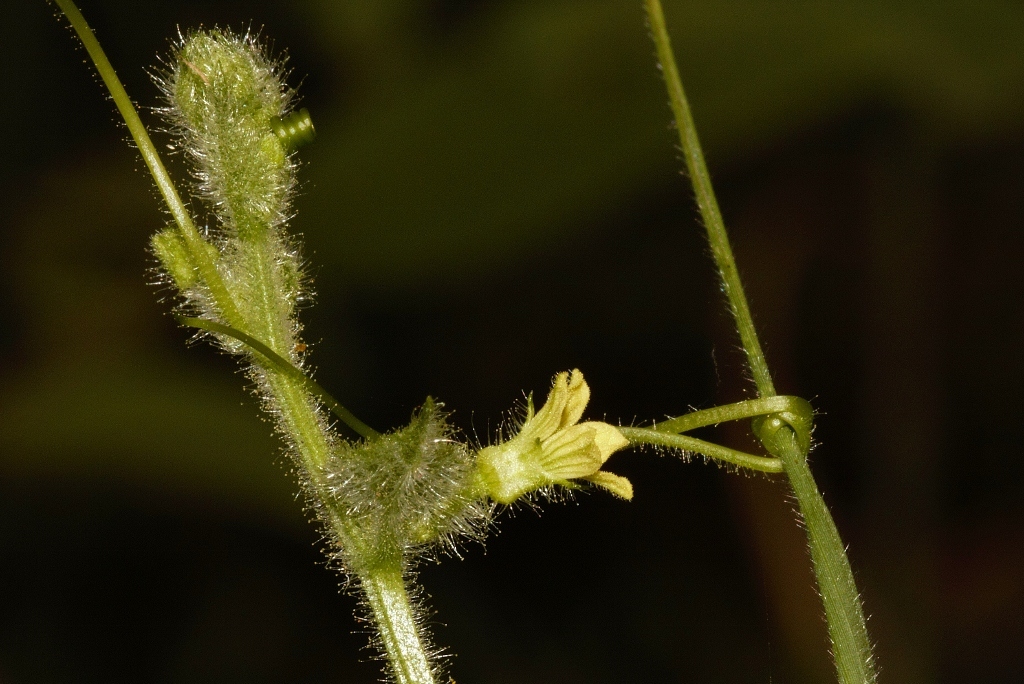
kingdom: Plantae
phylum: Tracheophyta
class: Magnoliopsida
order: Cucurbitales
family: Cucurbitaceae
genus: Kedrostis
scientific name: Kedrostis foetidissima
